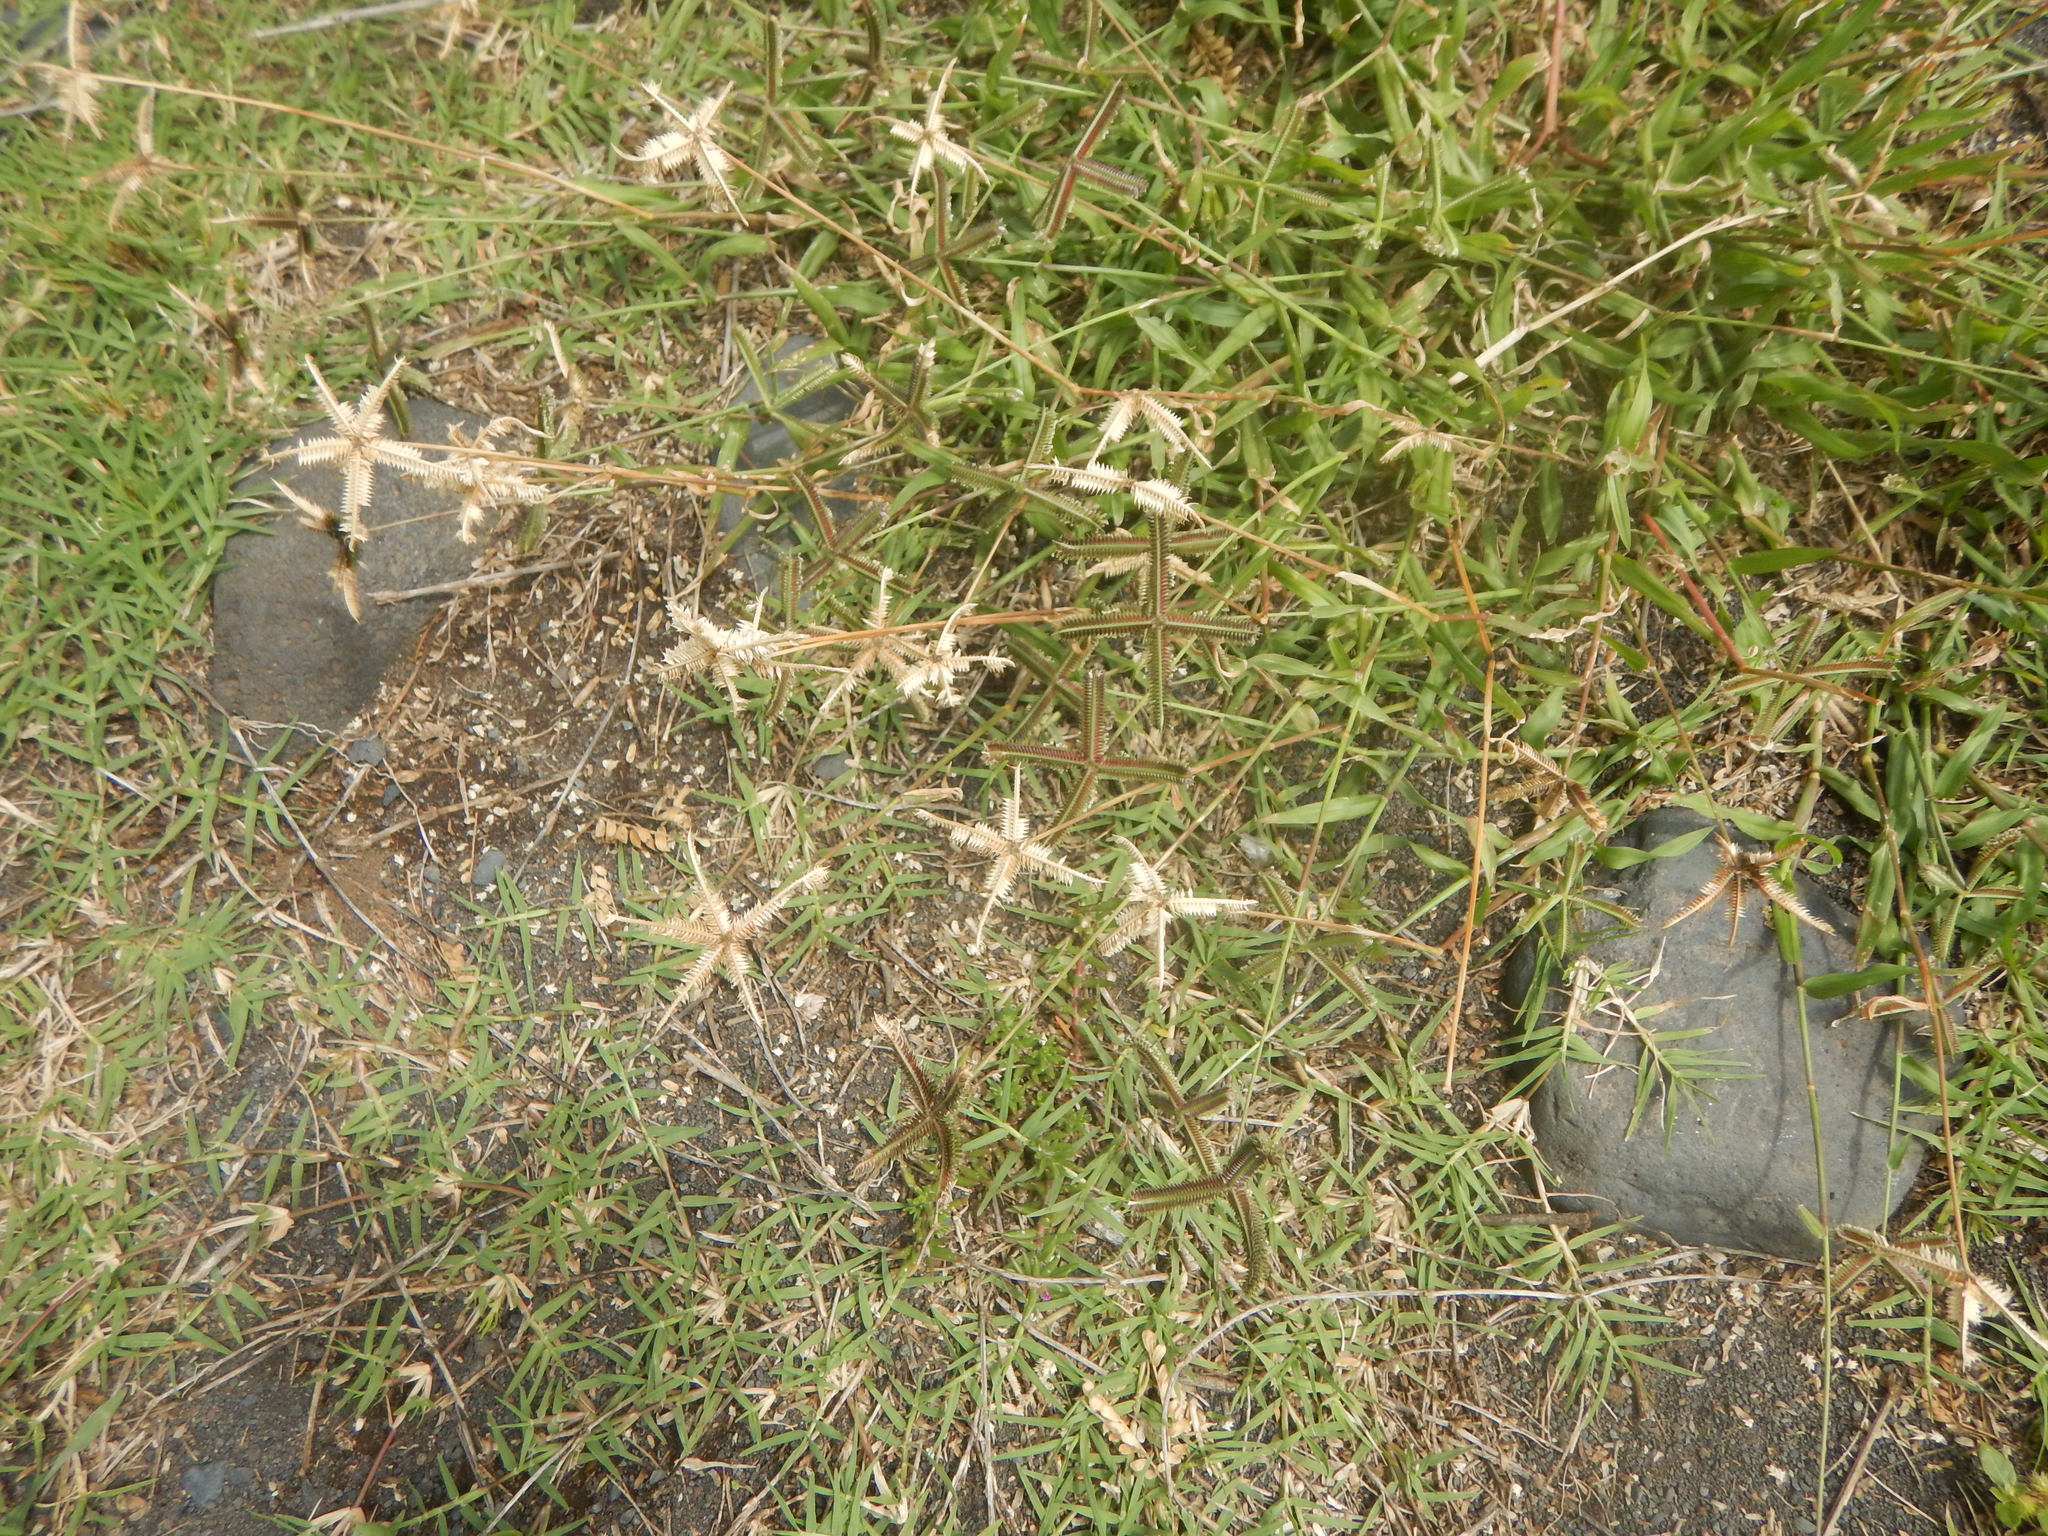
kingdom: Plantae
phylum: Tracheophyta
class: Liliopsida
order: Poales
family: Poaceae
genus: Dactyloctenium
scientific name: Dactyloctenium aegyptium
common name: Egyptian grass
